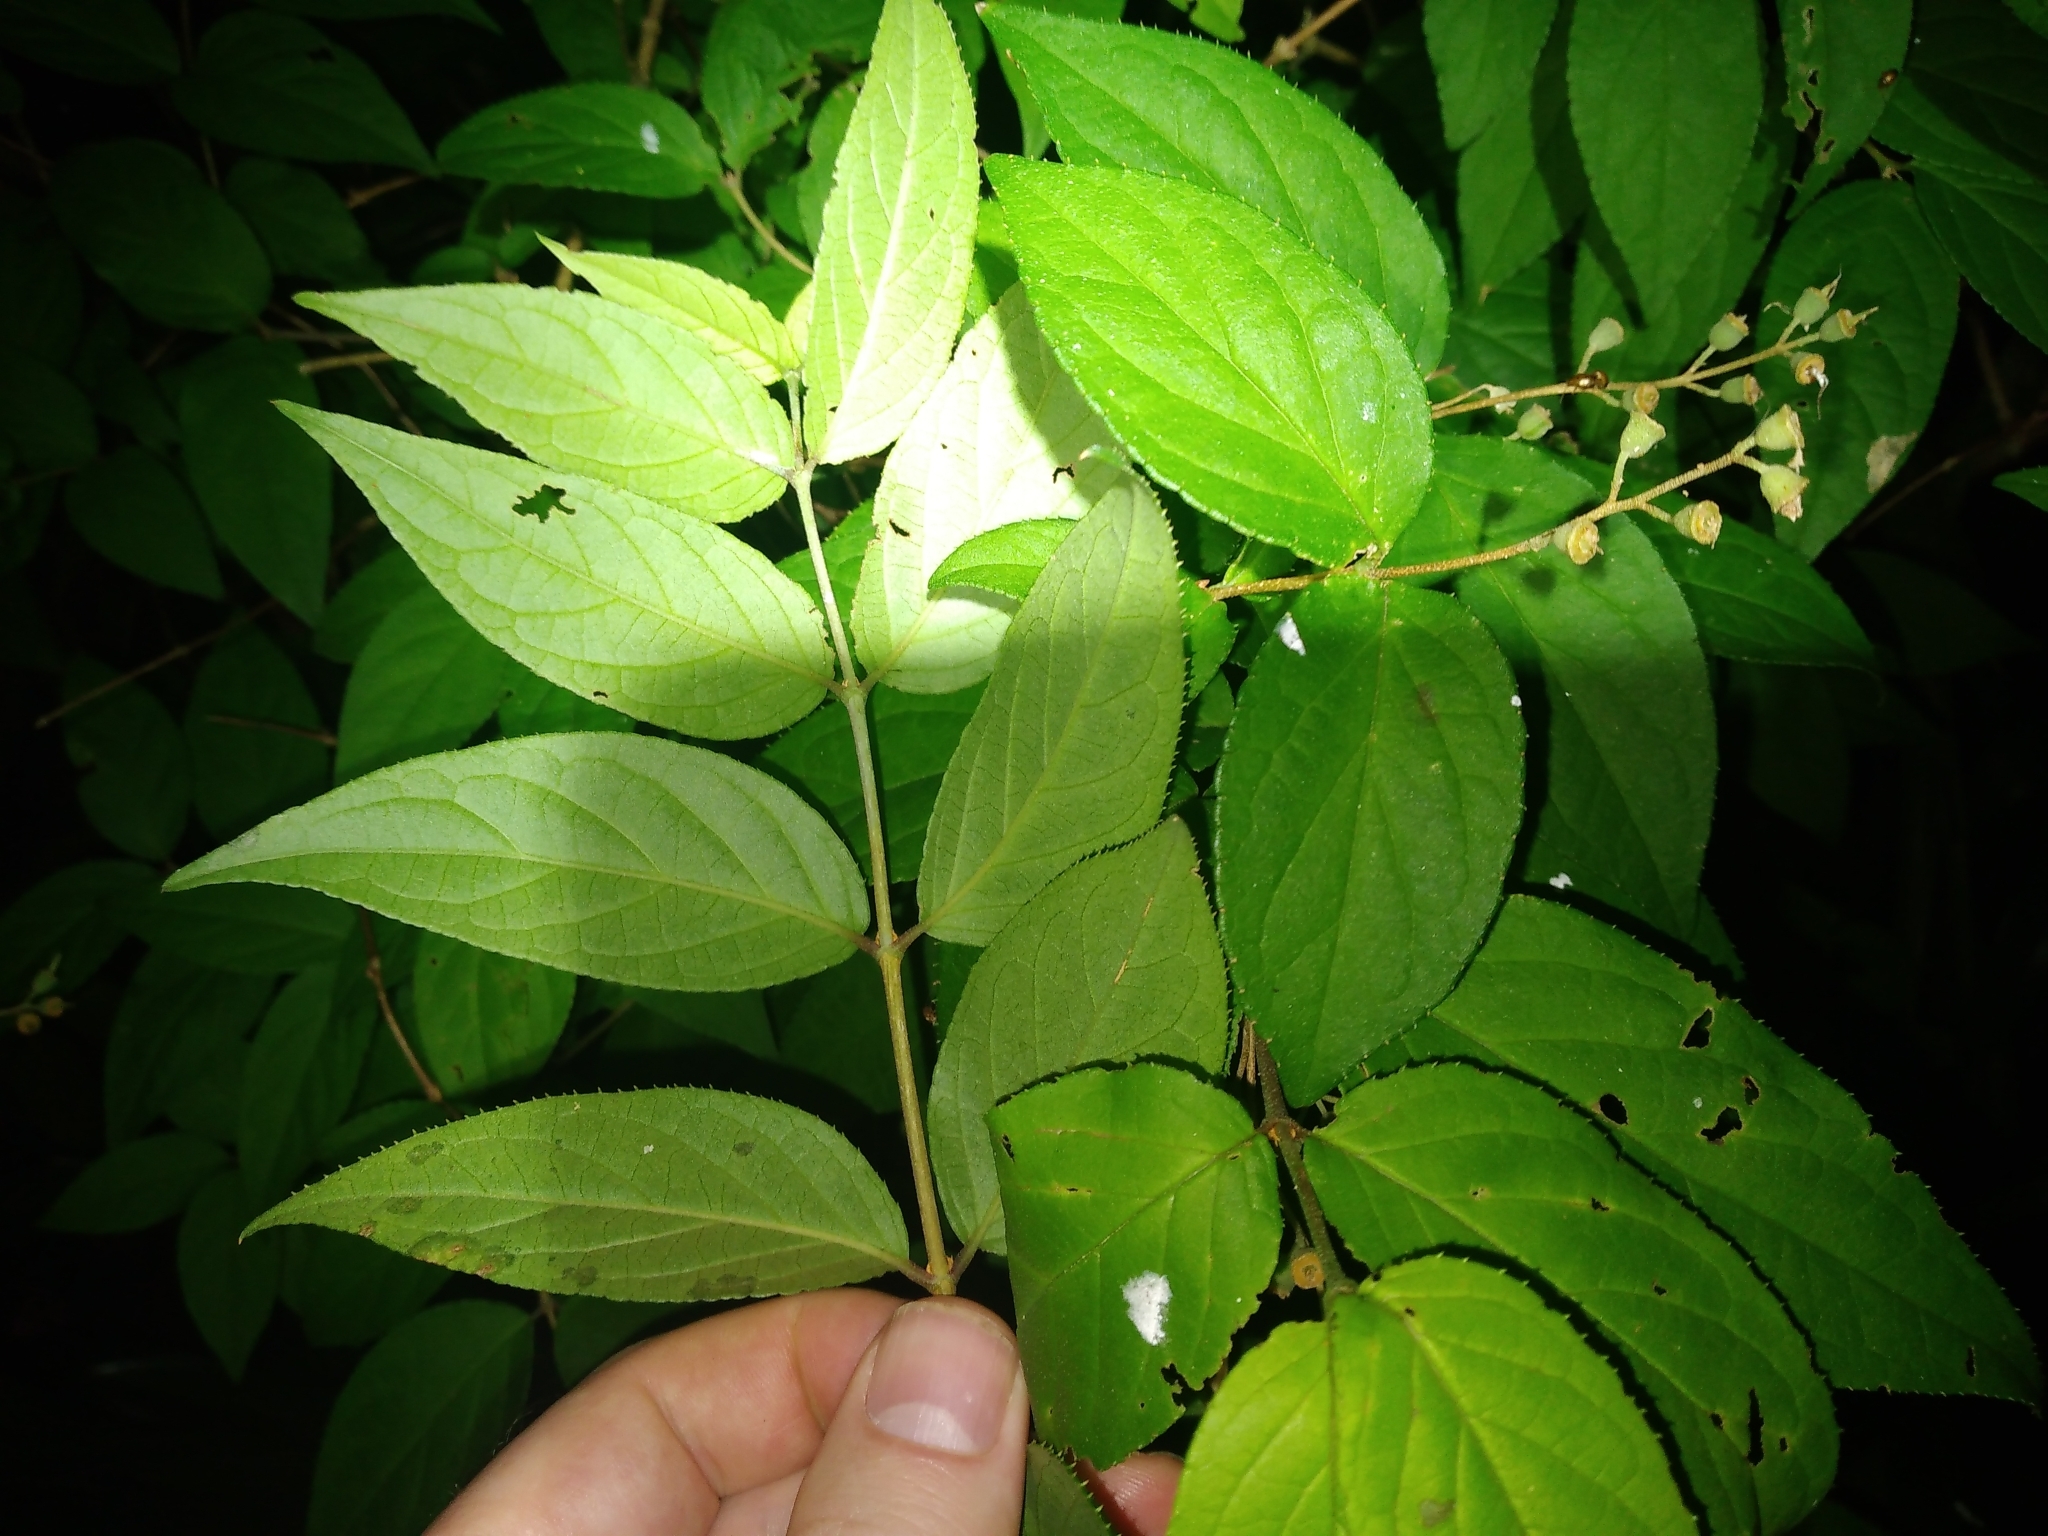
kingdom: Plantae
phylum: Tracheophyta
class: Magnoliopsida
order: Cornales
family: Hydrangeaceae
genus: Deutzia
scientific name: Deutzia crenata
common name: Deutzia
